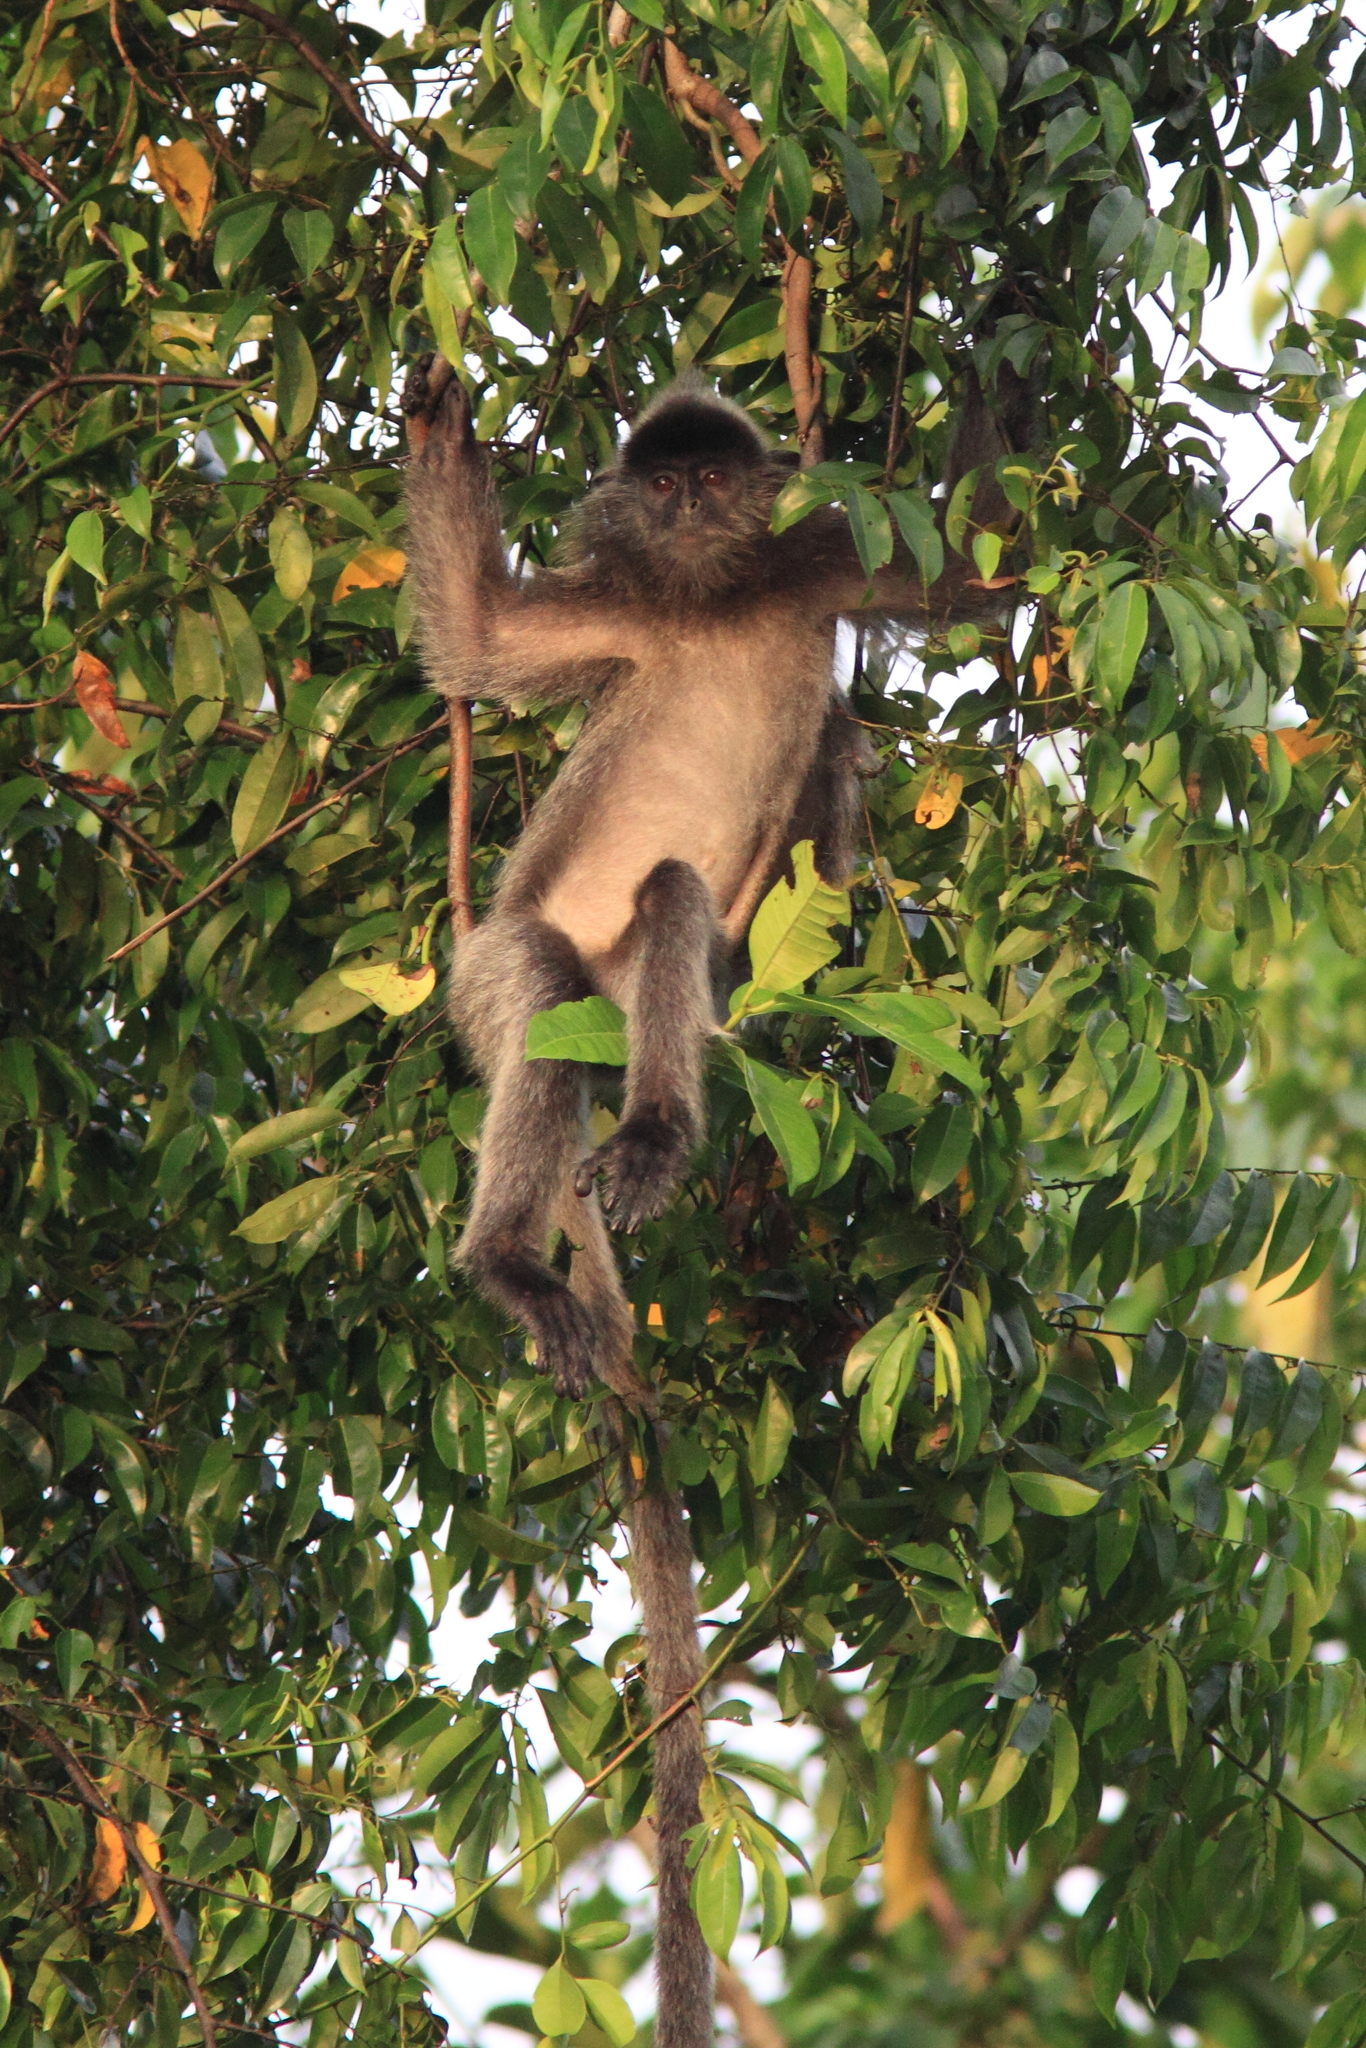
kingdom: Animalia
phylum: Chordata
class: Mammalia
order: Primates
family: Cercopithecidae
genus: Trachypithecus
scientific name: Trachypithecus cristatus
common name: Silvery lutung
